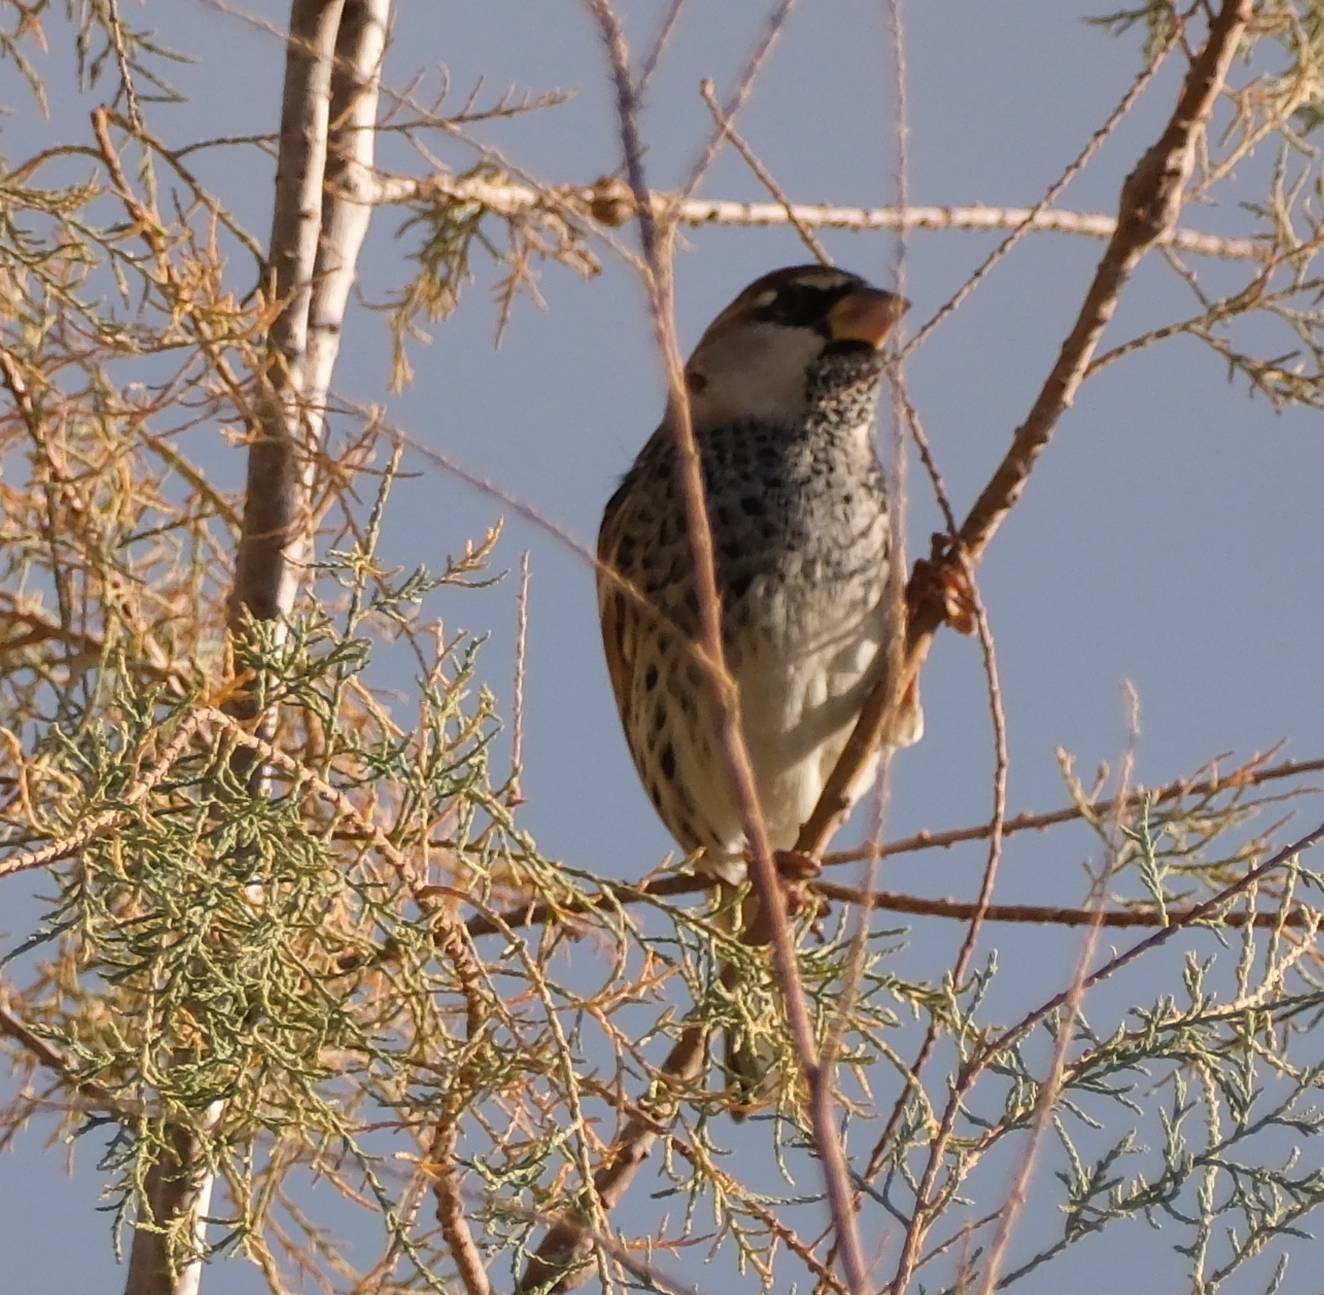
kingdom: Animalia
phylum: Chordata
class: Aves
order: Passeriformes
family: Passeridae
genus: Passer
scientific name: Passer hispaniolensis
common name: Spanish sparrow
